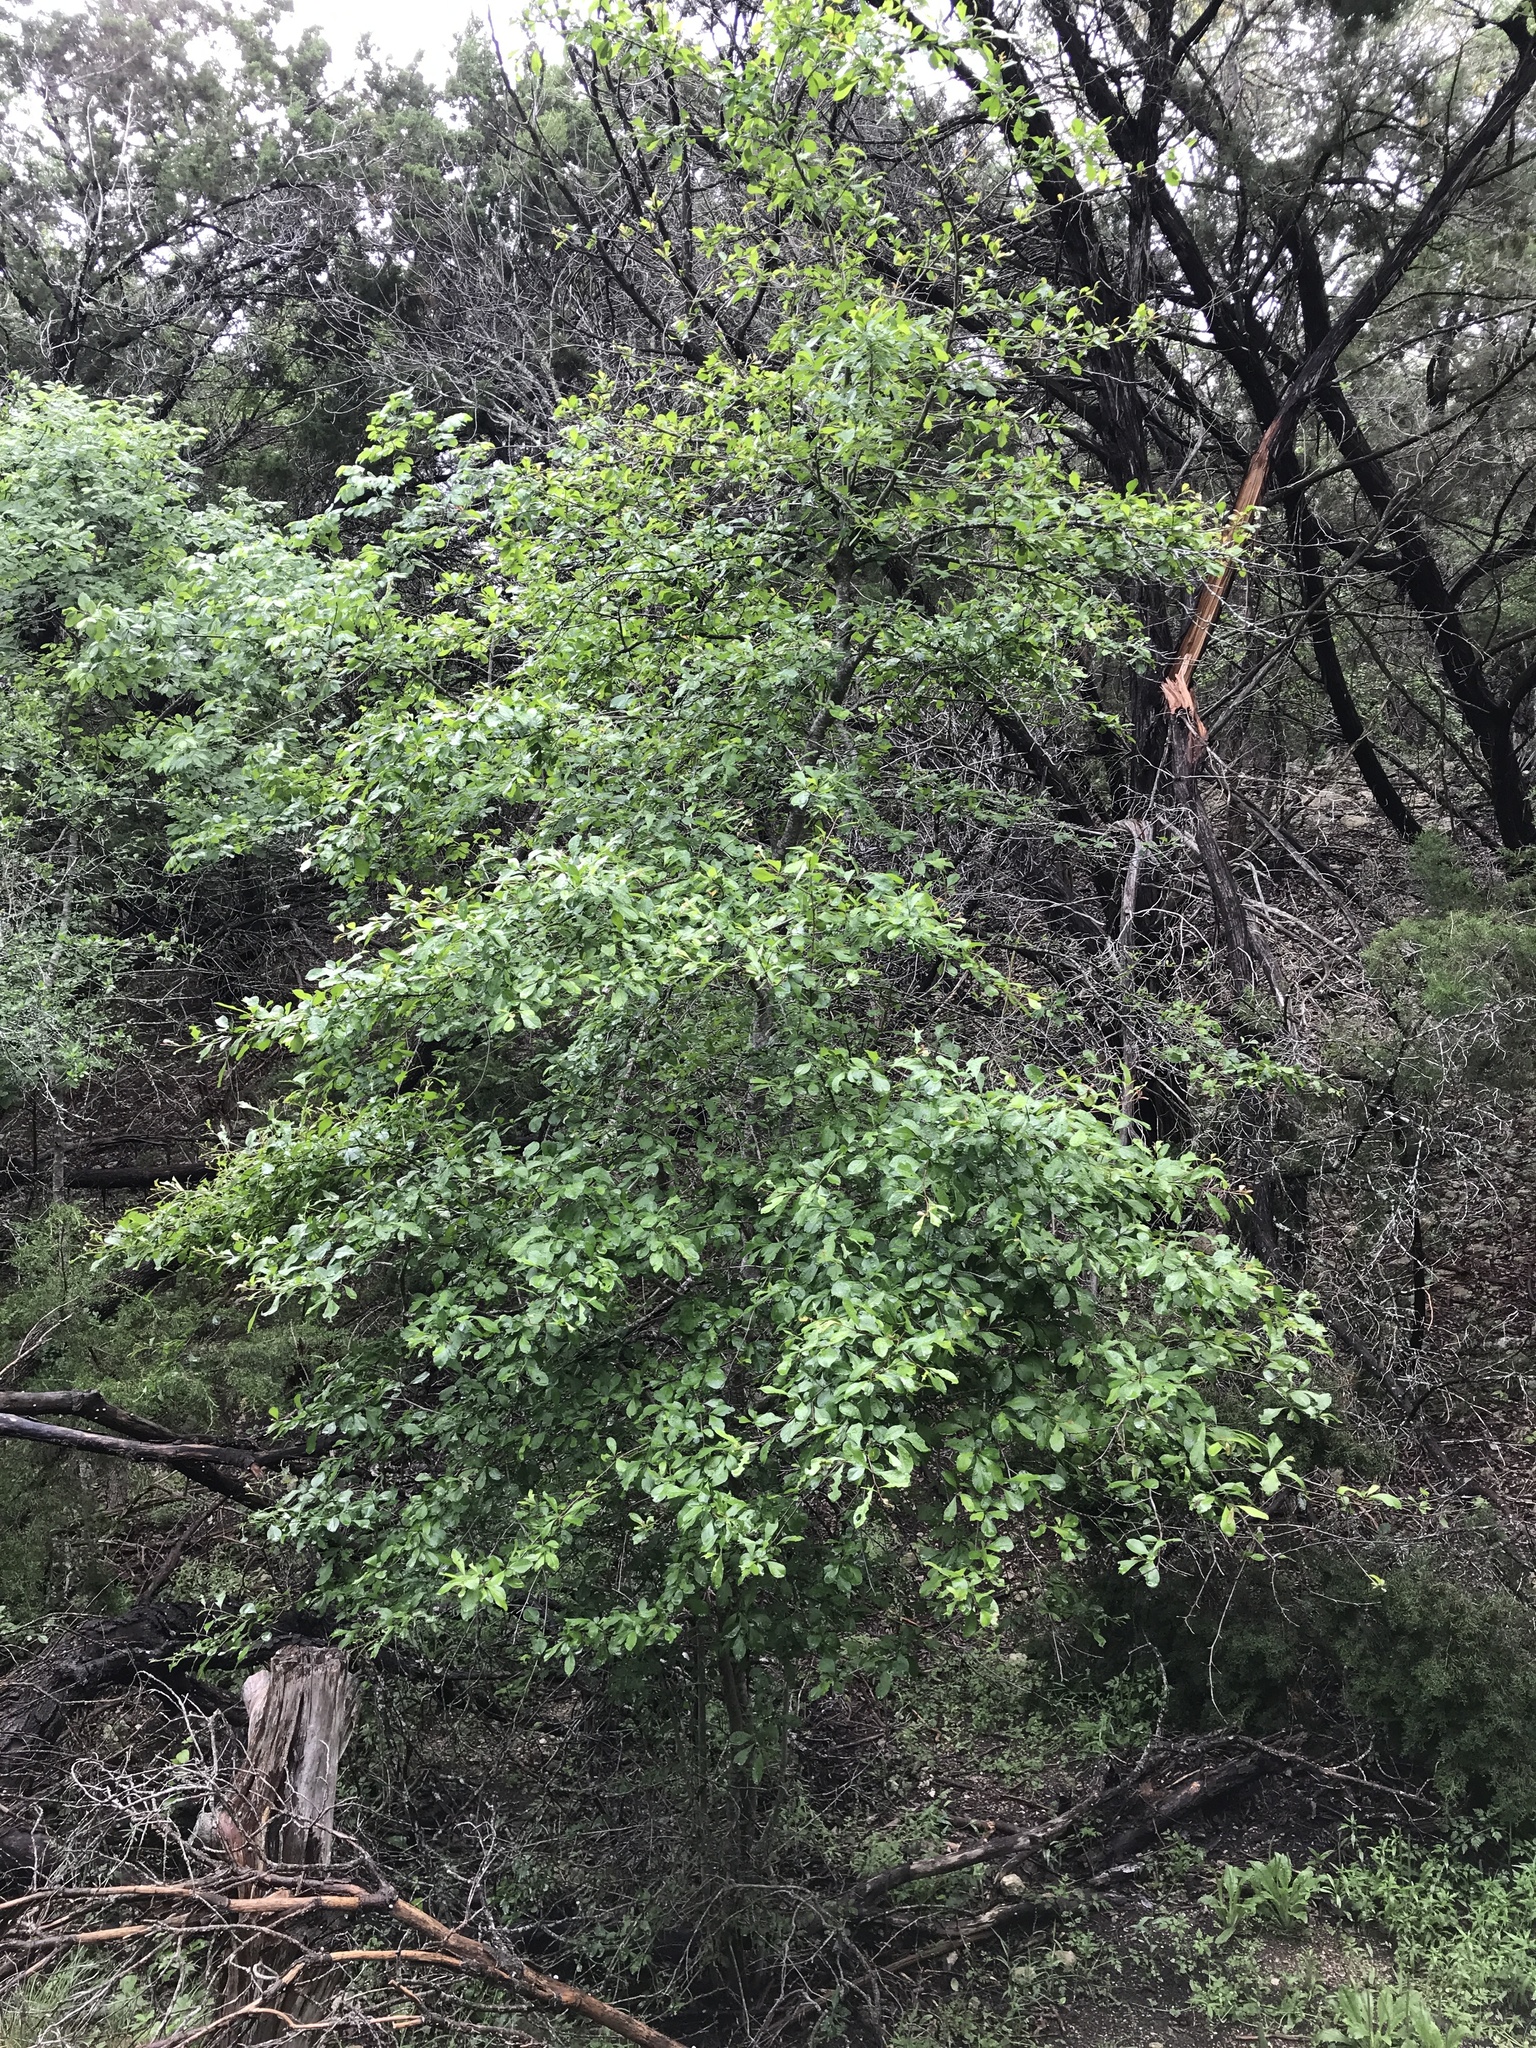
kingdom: Plantae
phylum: Tracheophyta
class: Magnoliopsida
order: Aquifoliales
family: Aquifoliaceae
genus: Ilex
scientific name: Ilex decidua
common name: Possum-haw
